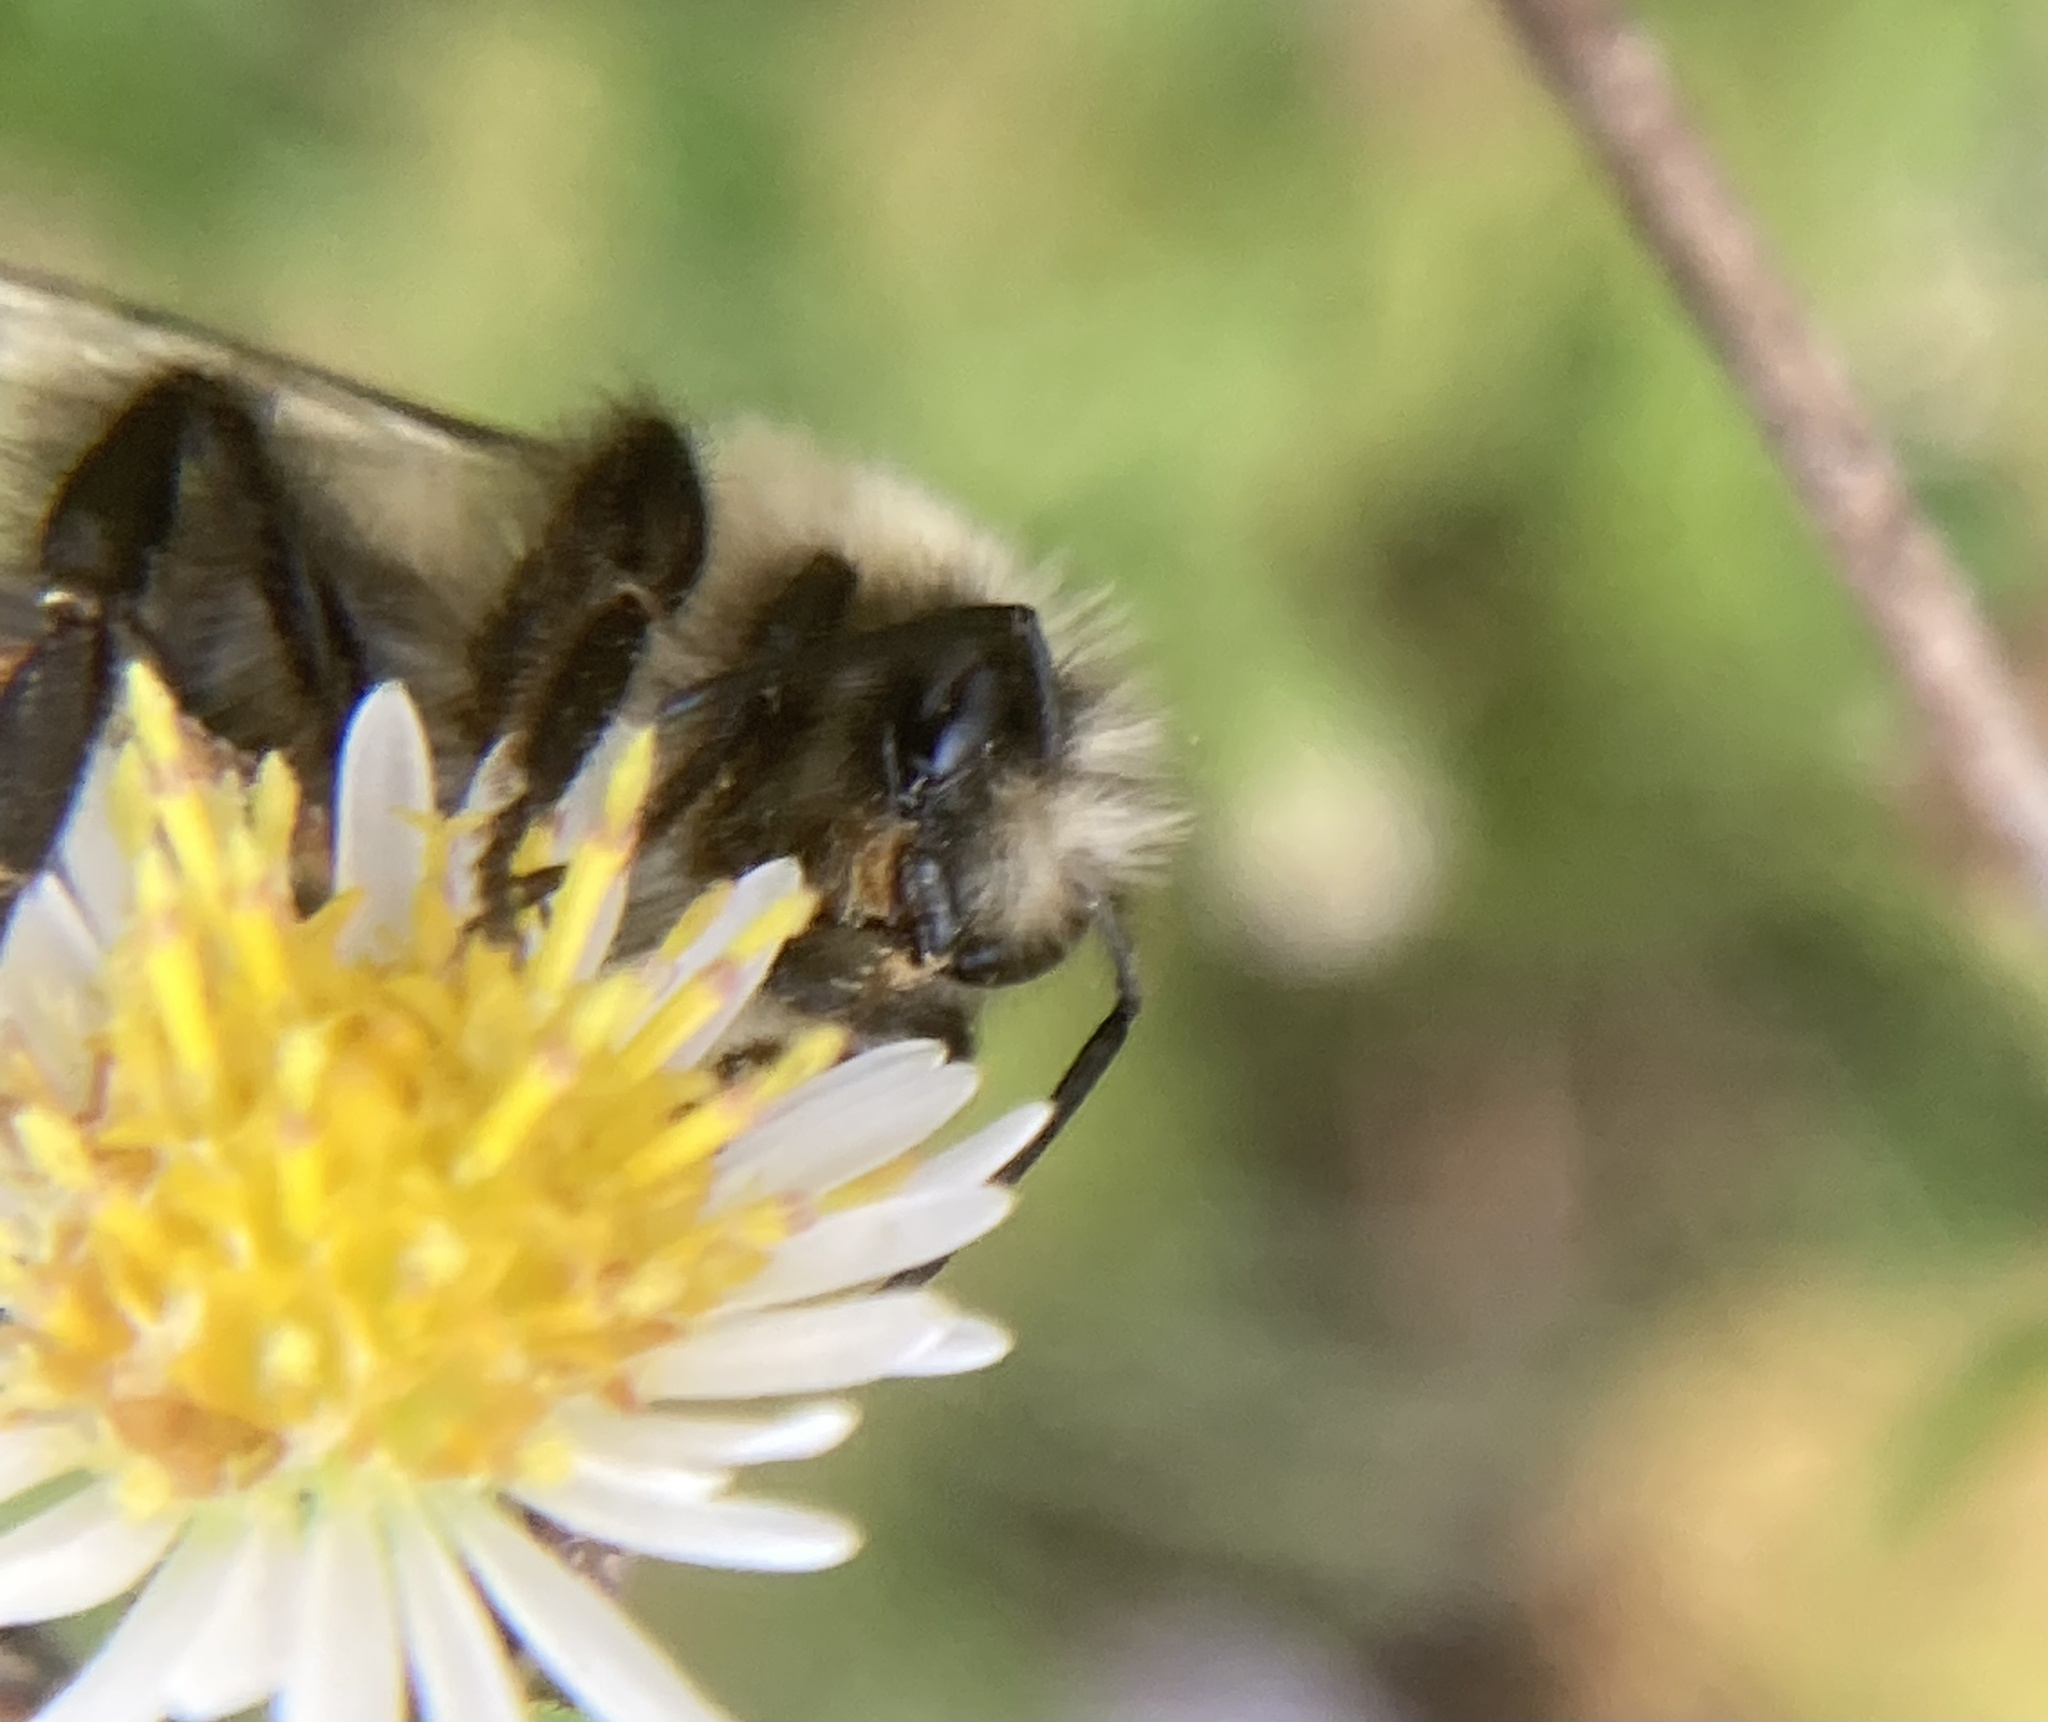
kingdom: Animalia
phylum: Arthropoda
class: Insecta
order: Hymenoptera
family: Apidae
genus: Bombus
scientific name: Bombus impatiens
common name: Common eastern bumble bee
